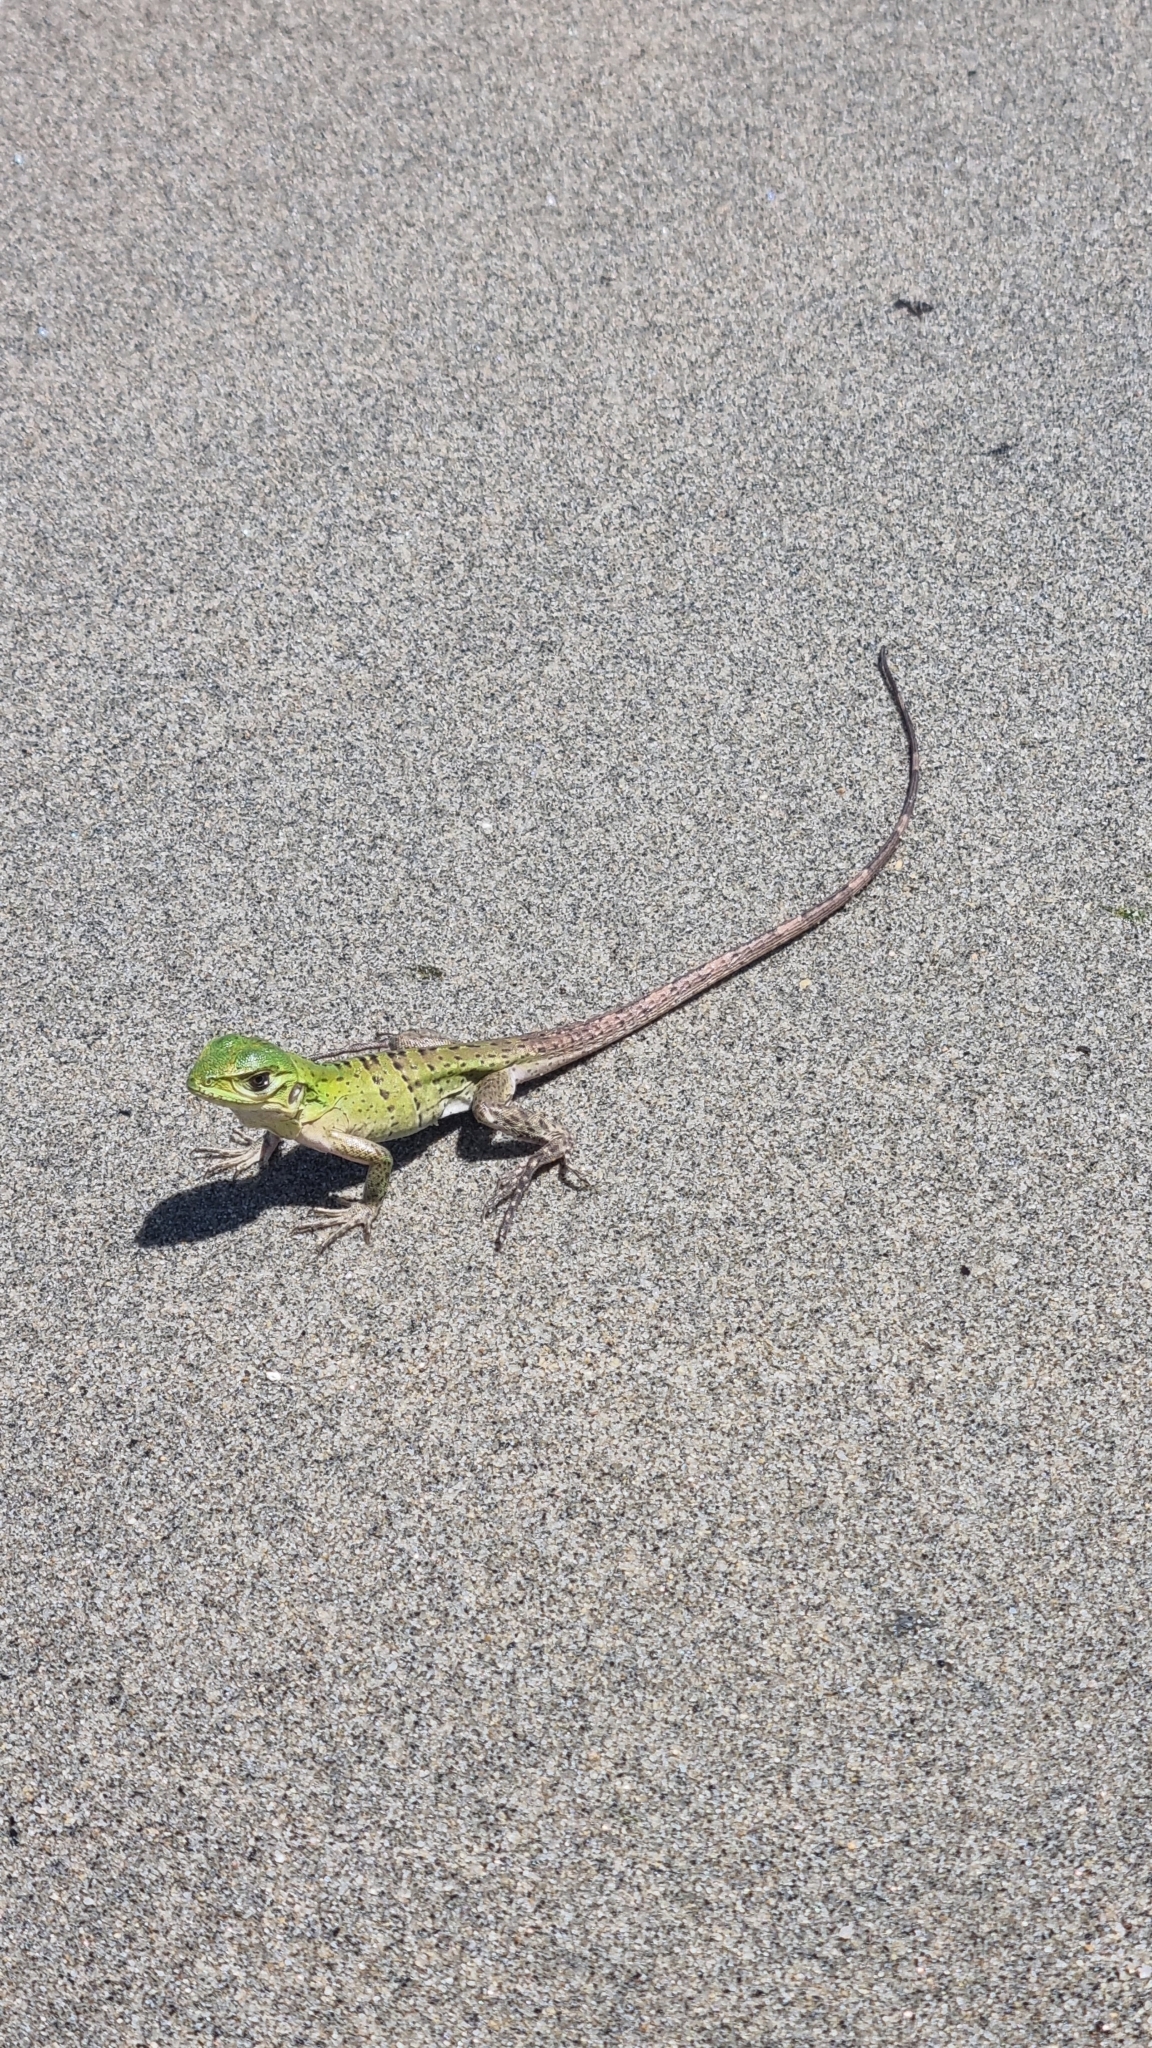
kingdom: Animalia
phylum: Chordata
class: Squamata
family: Iguanidae
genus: Ctenosaura
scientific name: Ctenosaura similis
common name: Black spiny-tailed iguana
